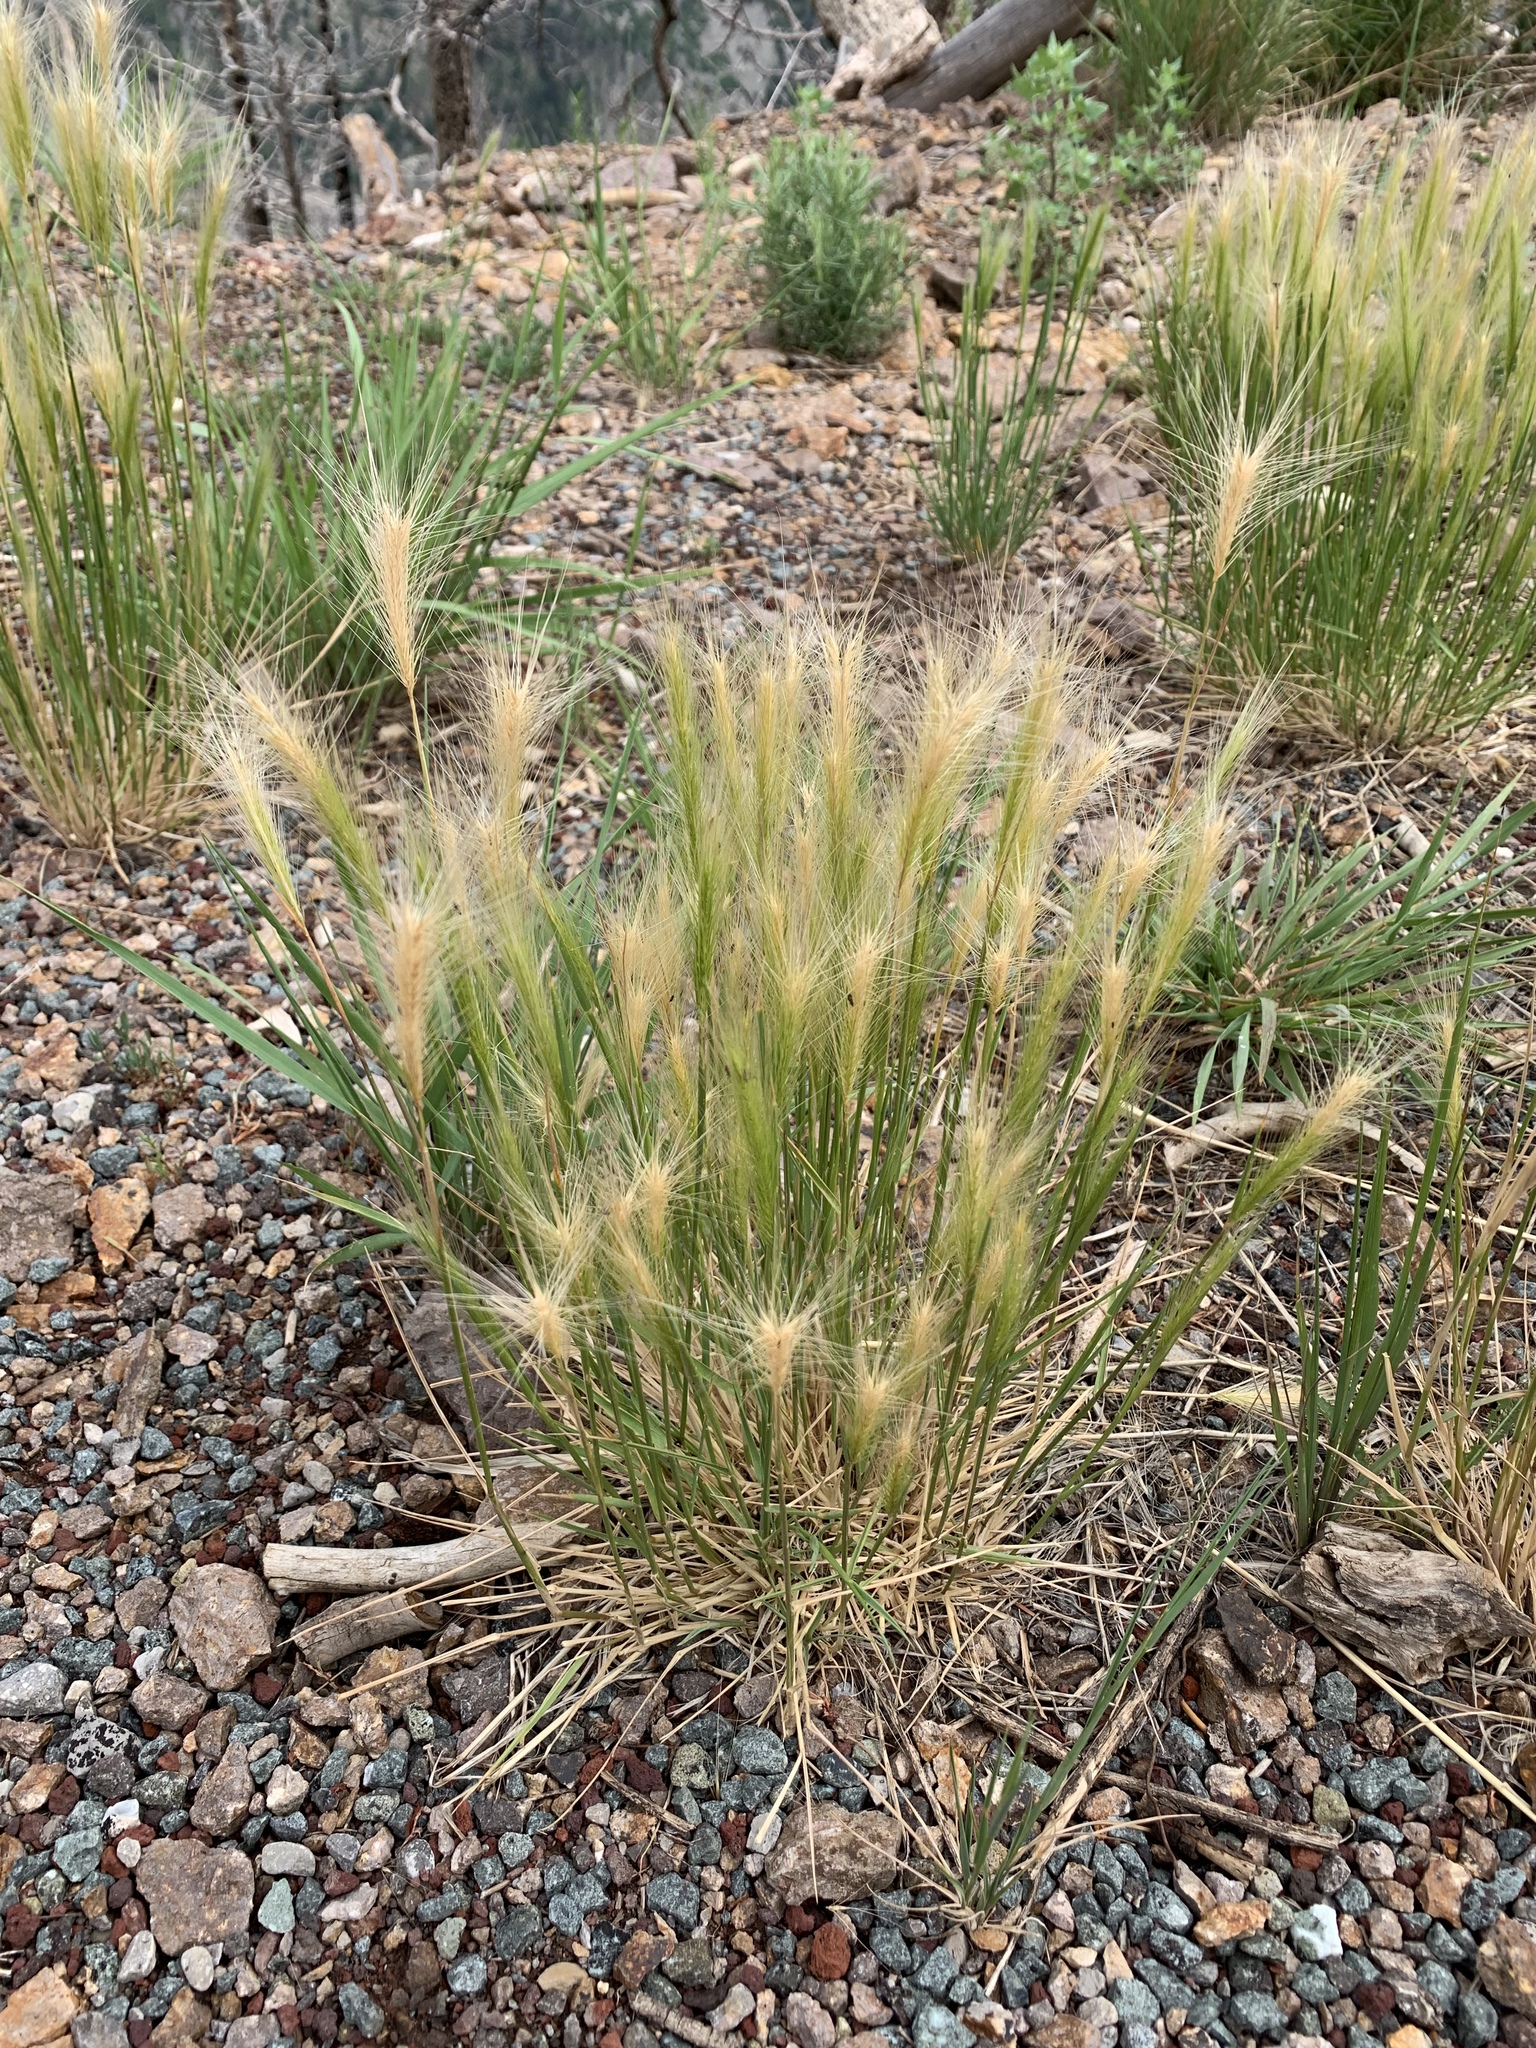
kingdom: Plantae
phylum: Tracheophyta
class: Liliopsida
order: Poales
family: Poaceae
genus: Hordeum
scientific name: Hordeum jubatum
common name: Foxtail barley
